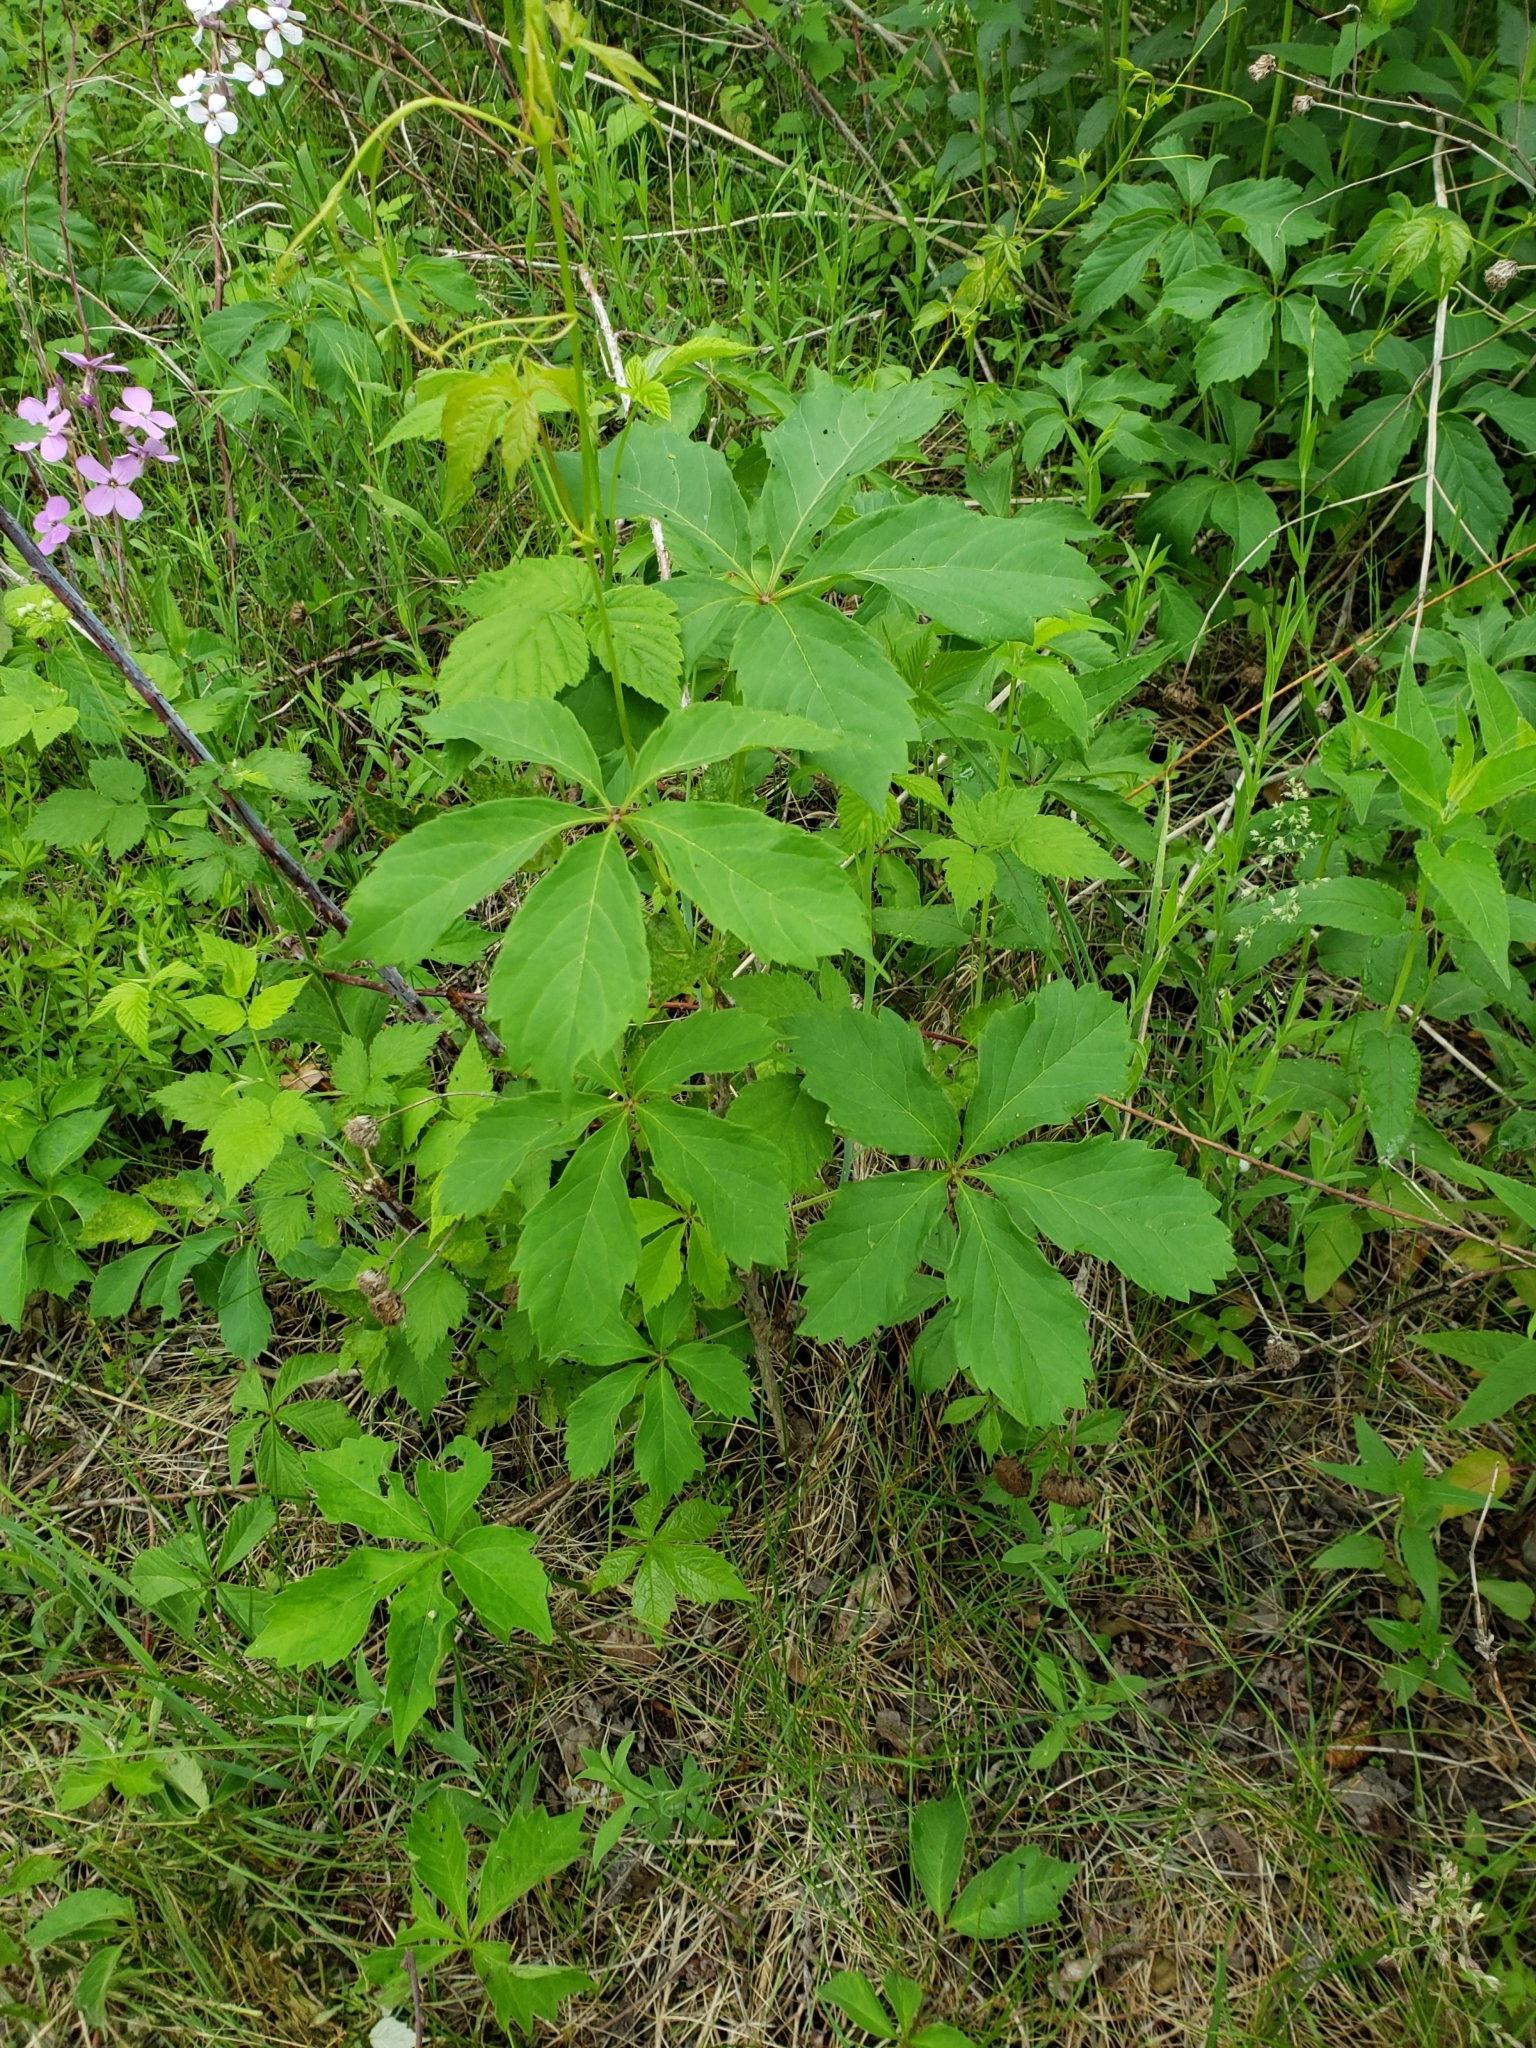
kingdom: Plantae
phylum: Tracheophyta
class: Magnoliopsida
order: Vitales
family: Vitaceae
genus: Parthenocissus
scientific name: Parthenocissus quinquefolia
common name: Virginia-creeper
